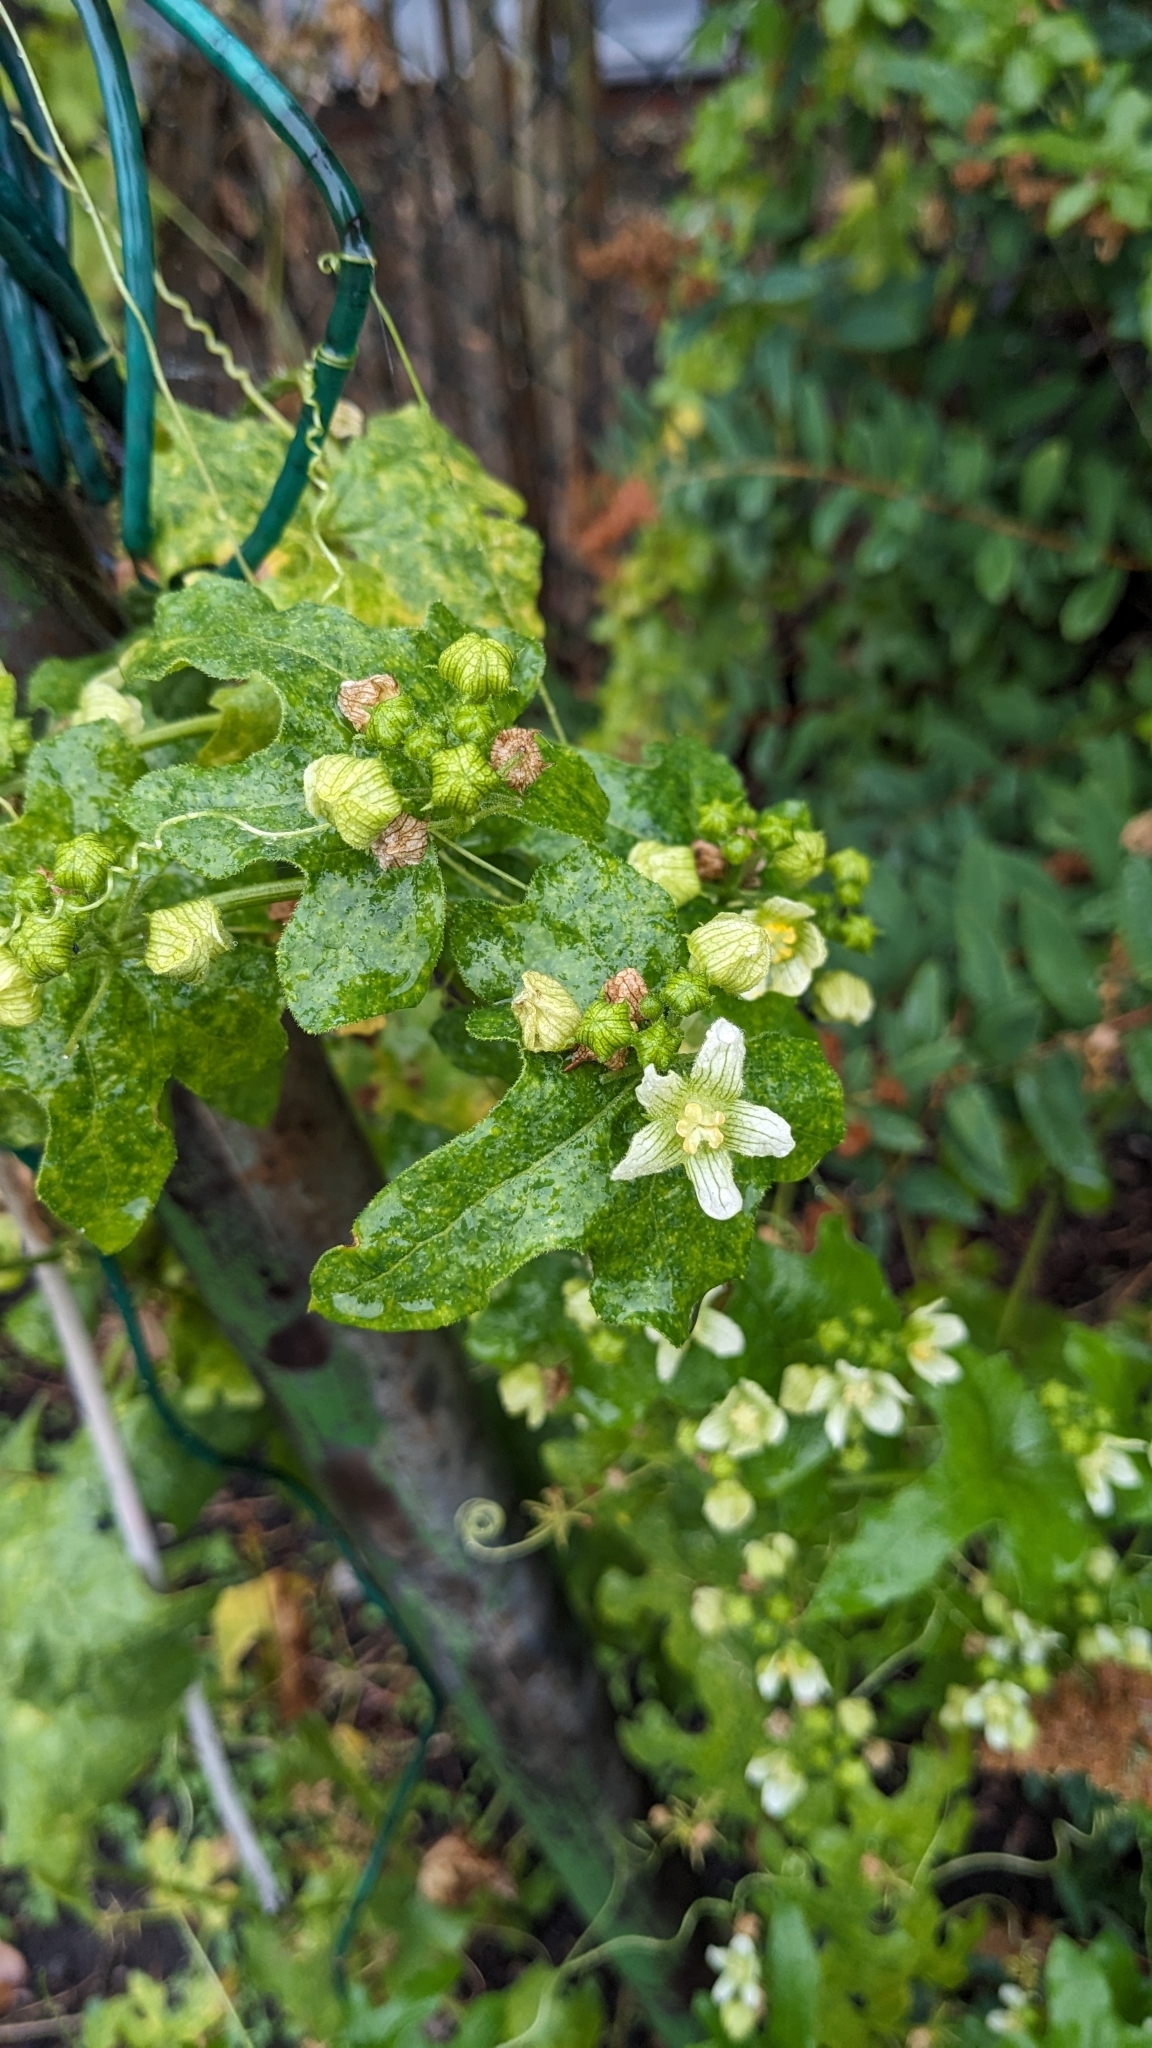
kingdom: Plantae
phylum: Tracheophyta
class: Magnoliopsida
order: Cucurbitales
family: Cucurbitaceae
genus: Bryonia
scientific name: Bryonia cretica
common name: Cretan bryony
